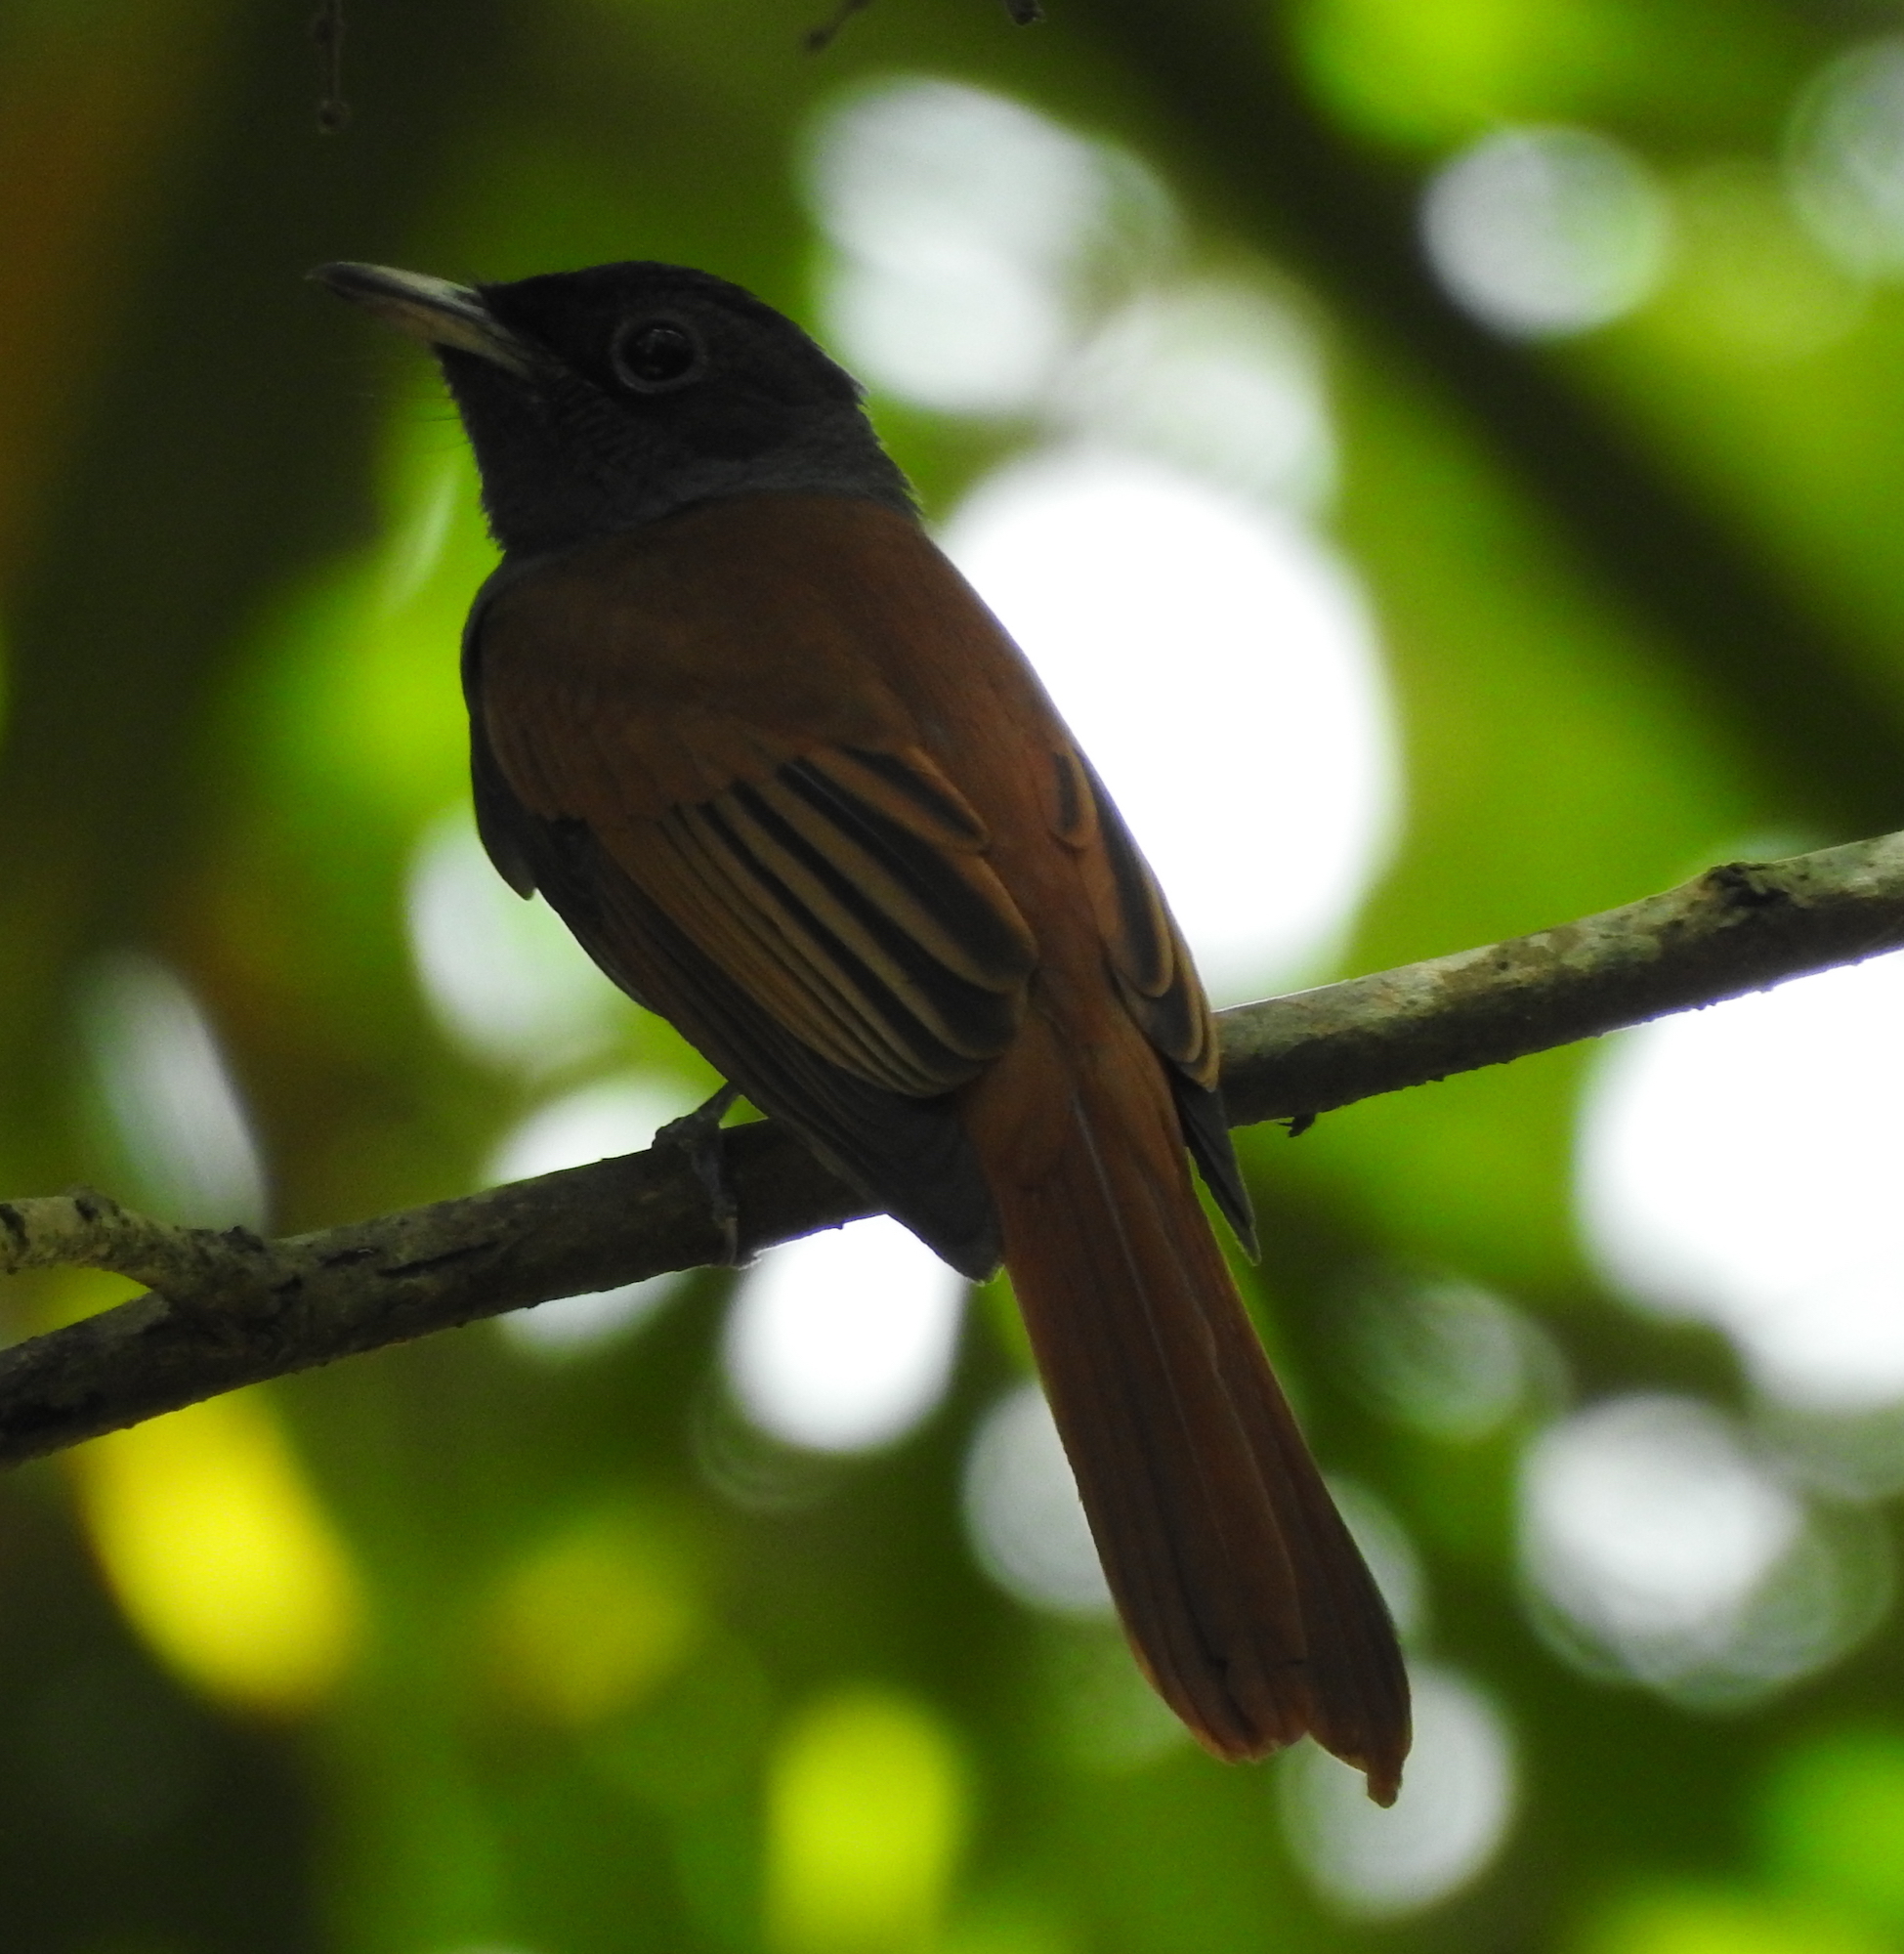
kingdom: Animalia
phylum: Chordata
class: Aves
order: Passeriformes
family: Monarchidae
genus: Terpsiphone
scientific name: Terpsiphone paradisi
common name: Indian paradise flycatcher
